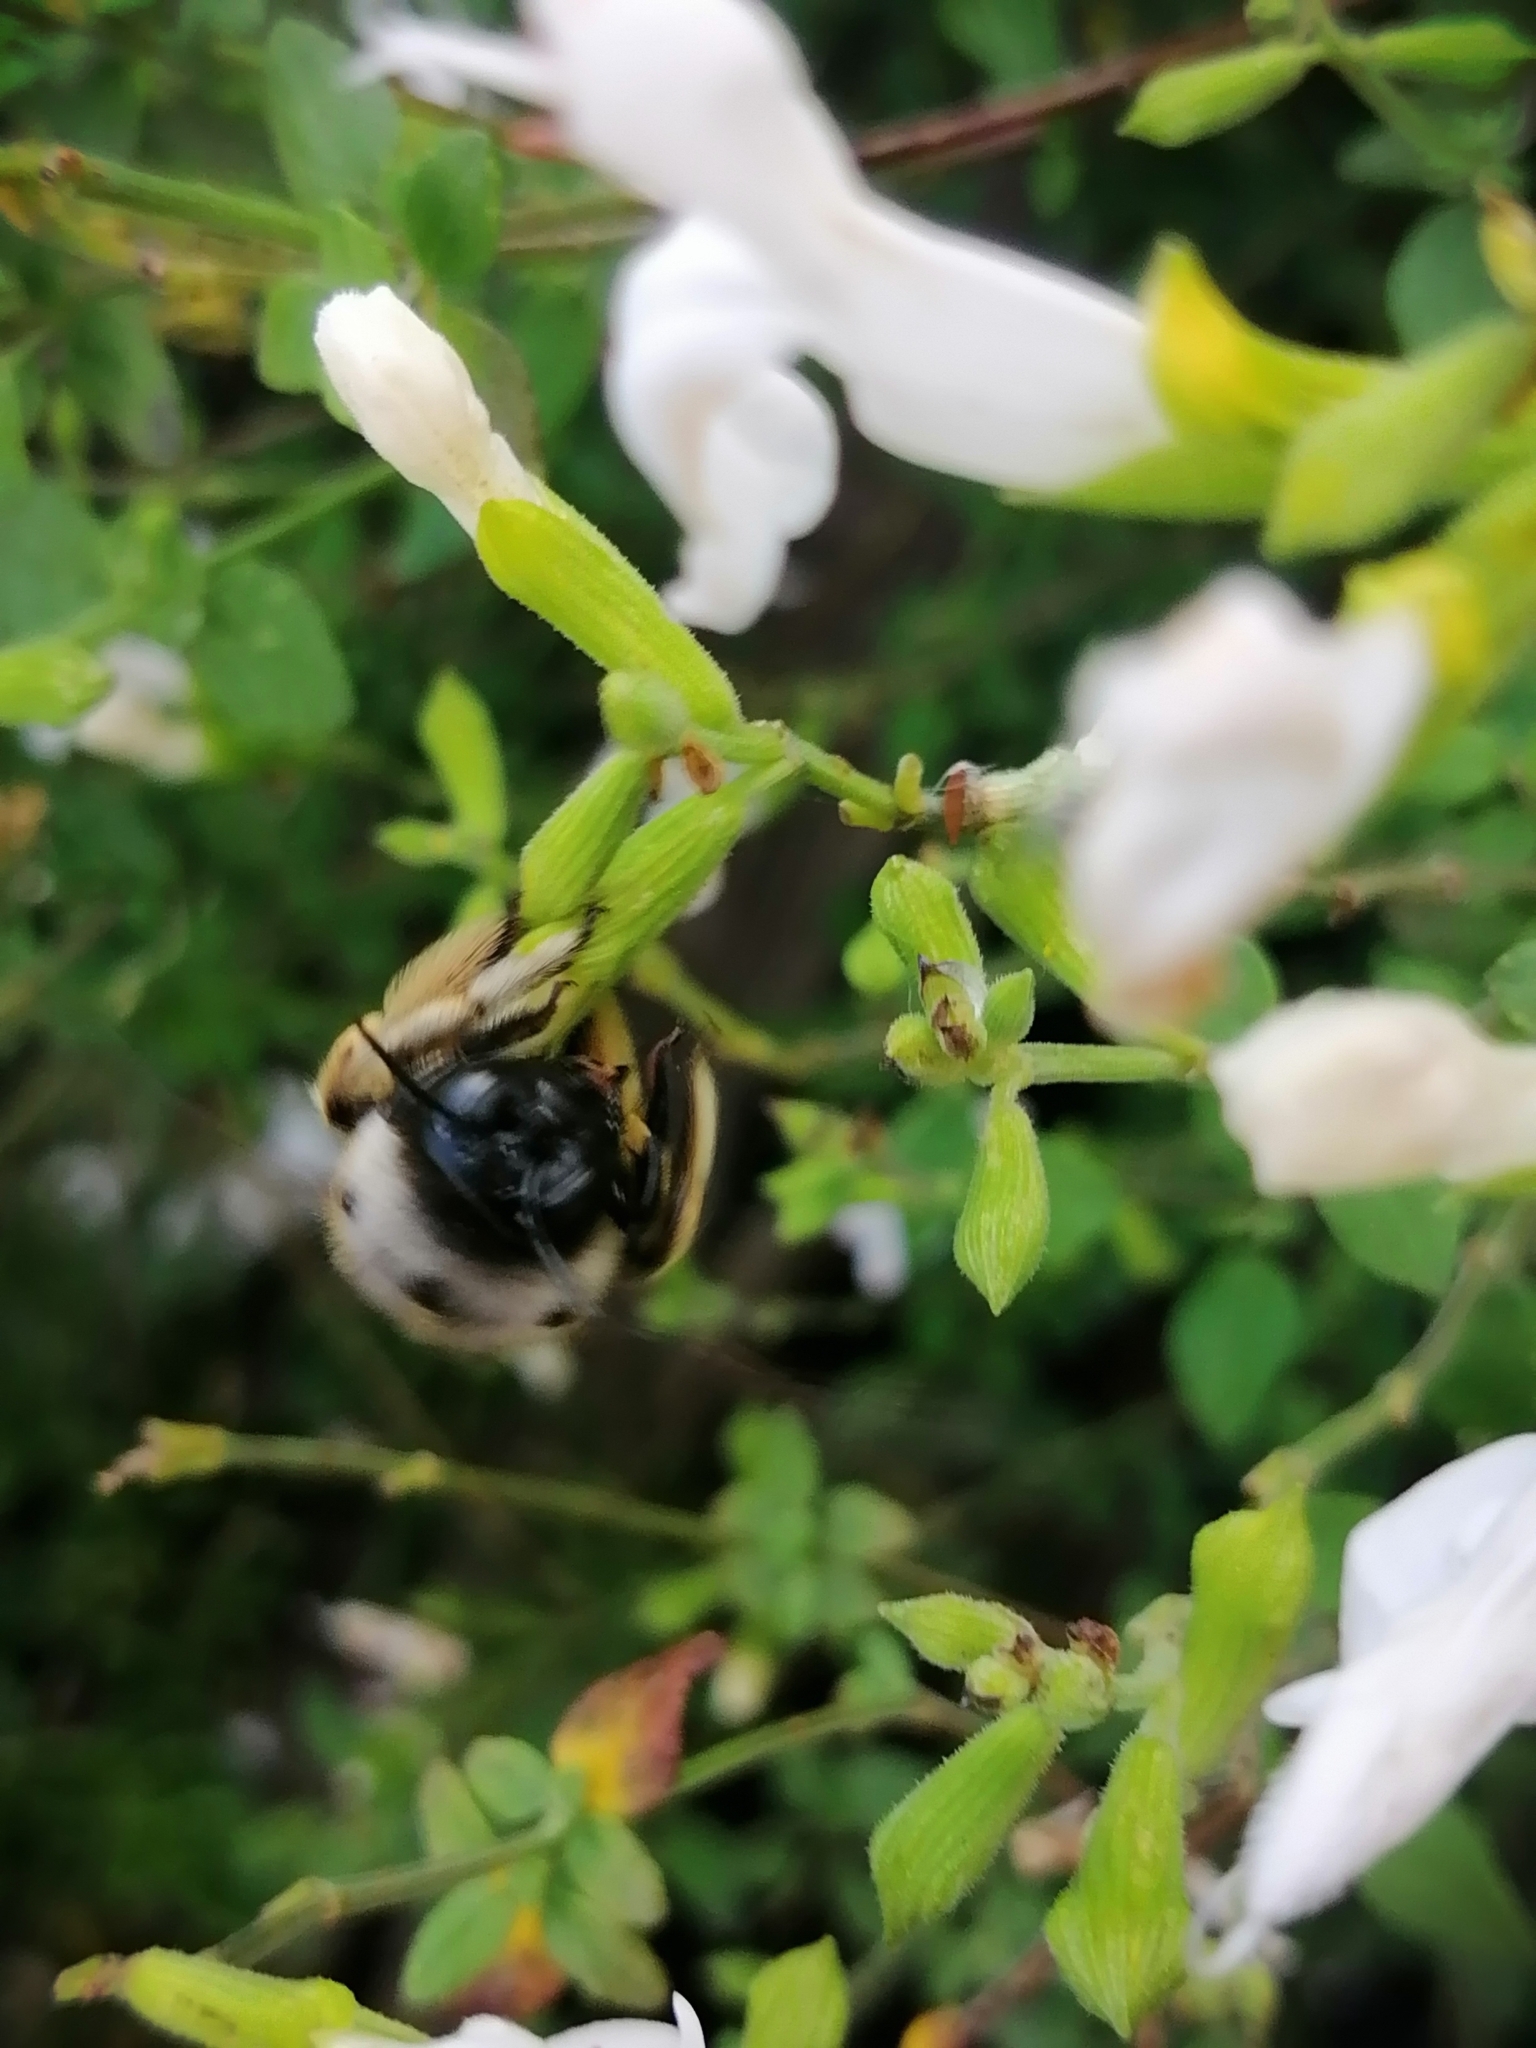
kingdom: Animalia
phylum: Arthropoda
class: Insecta
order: Hymenoptera
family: Apidae
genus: Xylocopa
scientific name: Xylocopa tabaniformis
